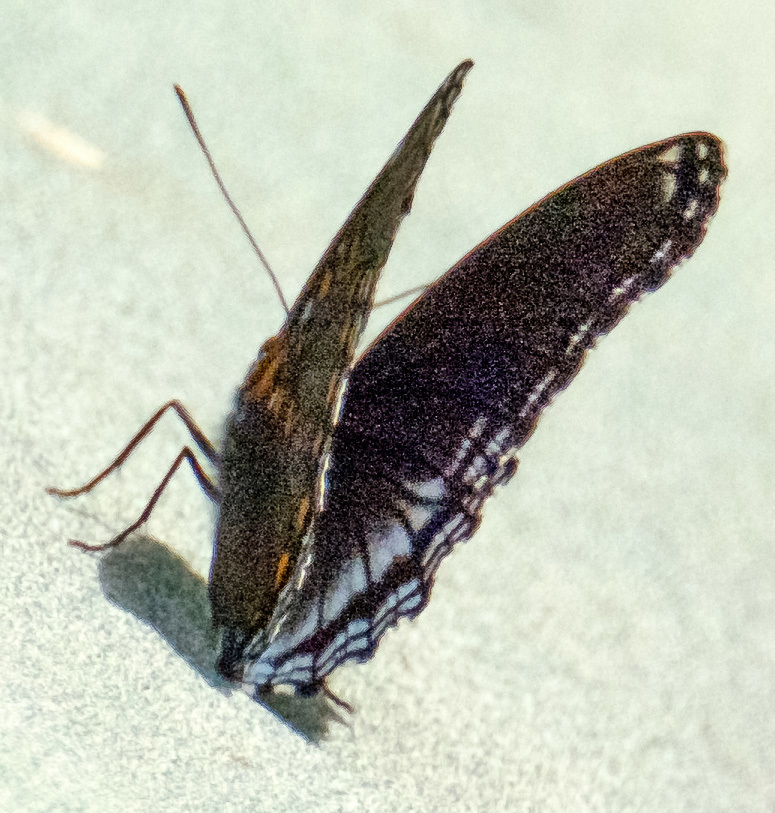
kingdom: Animalia
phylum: Arthropoda
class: Insecta
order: Lepidoptera
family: Nymphalidae
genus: Limenitis
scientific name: Limenitis arthemis
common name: Red-spotted admiral
